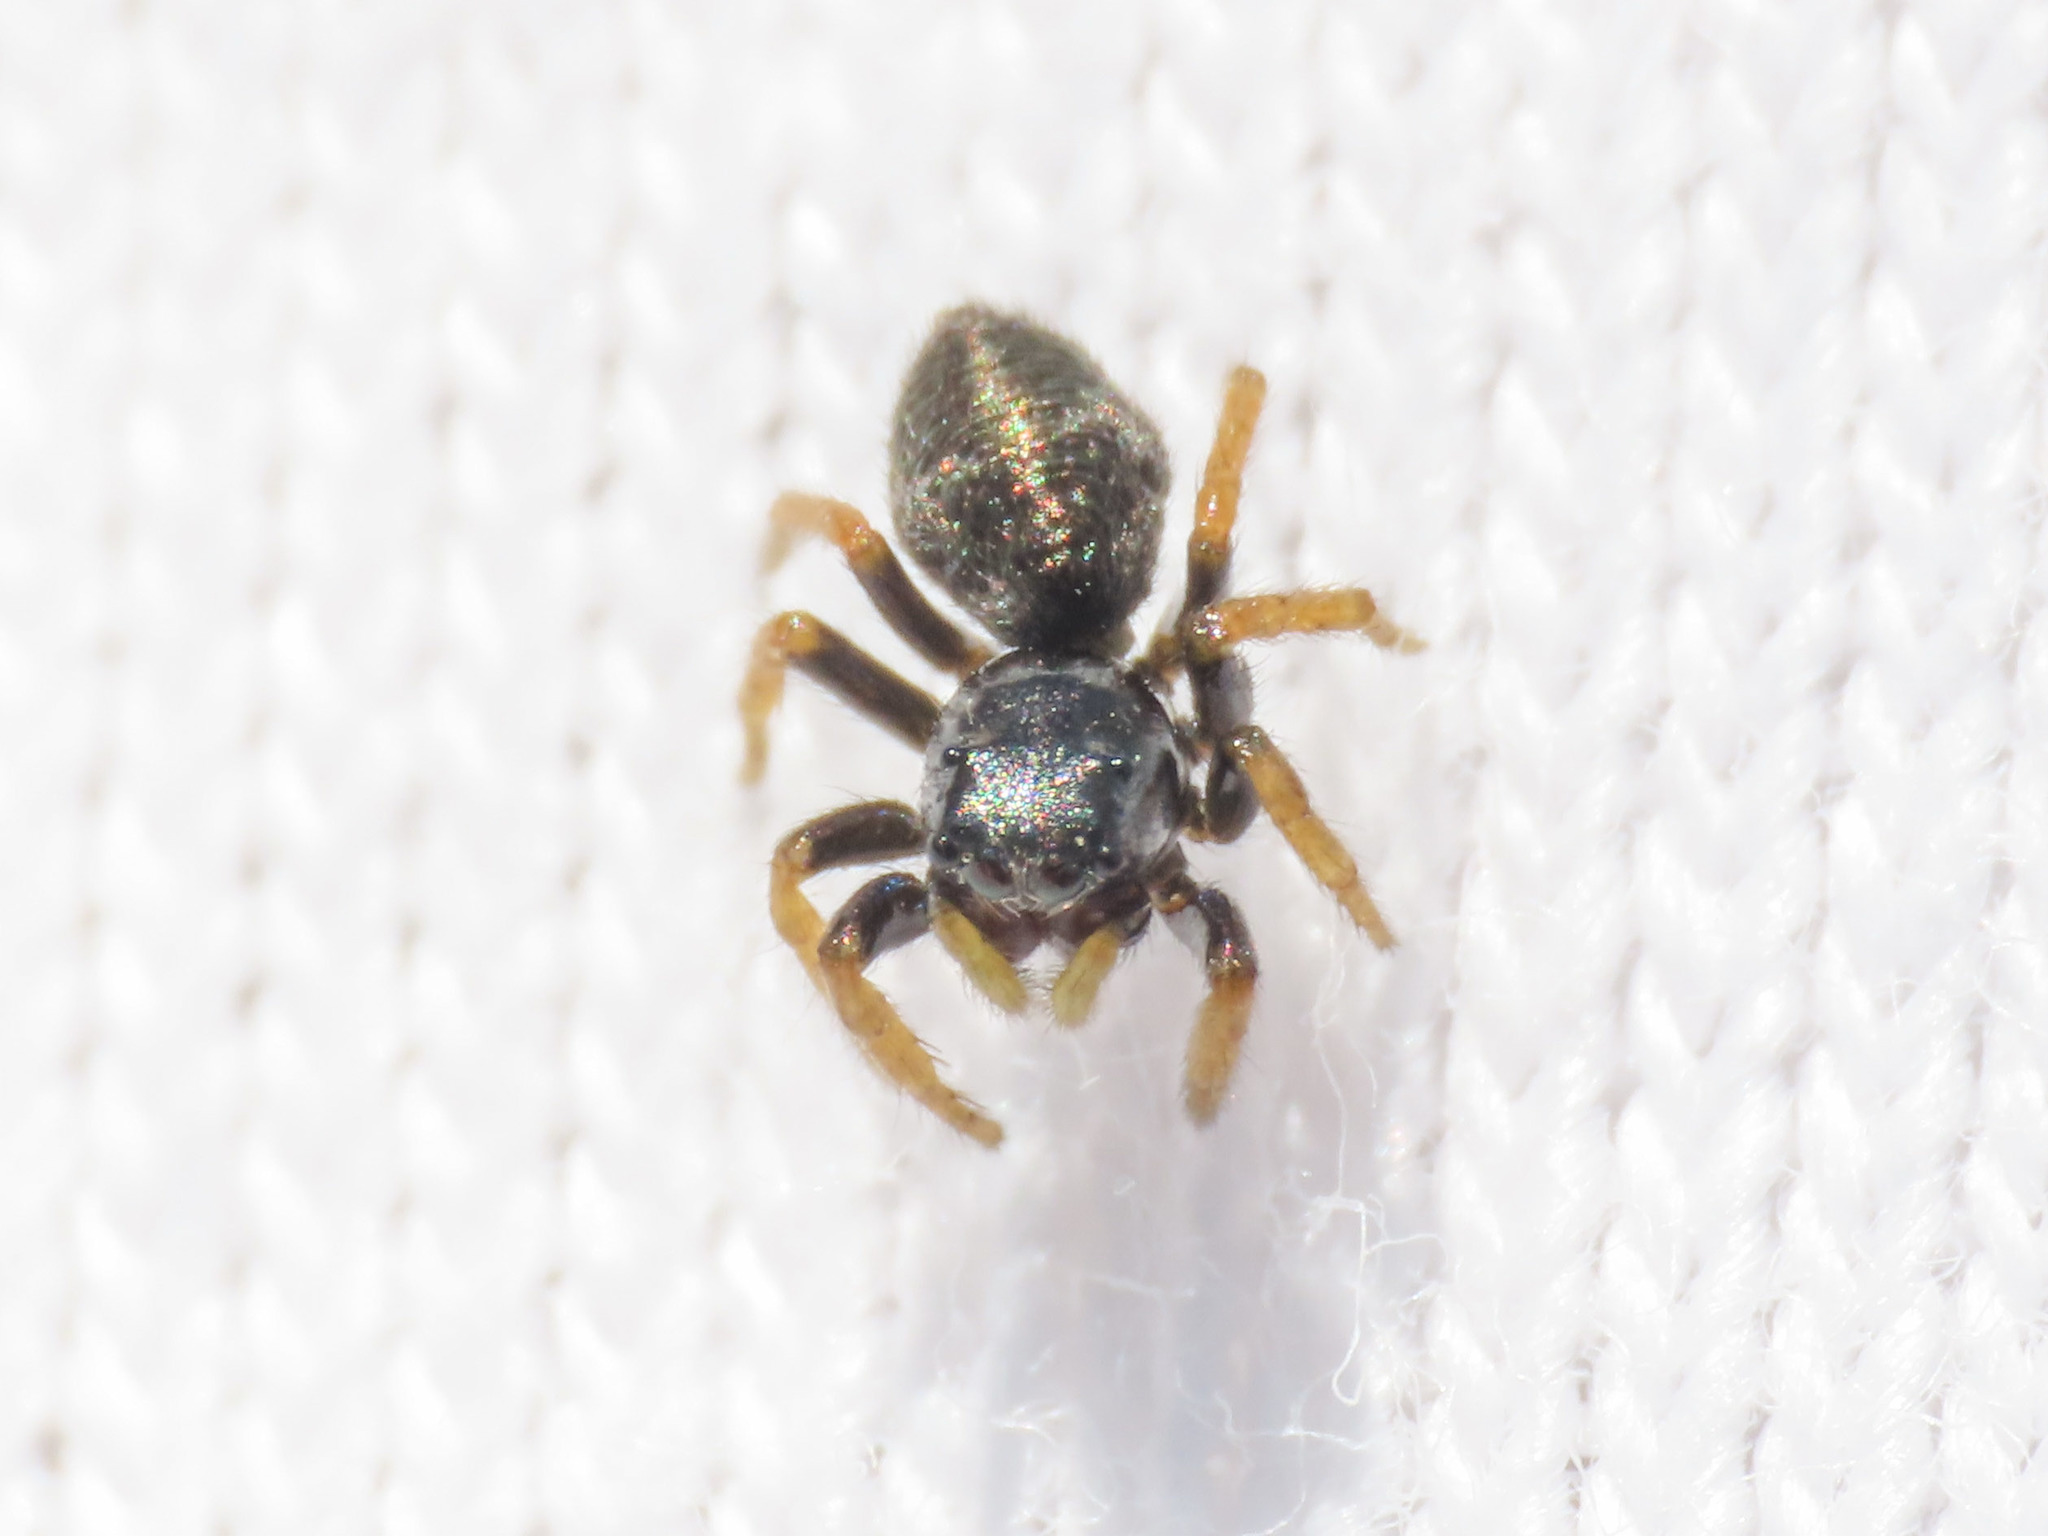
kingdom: Animalia
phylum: Arthropoda
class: Arachnida
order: Araneae
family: Salticidae
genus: Chalcoscirtus
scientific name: Chalcoscirtus infimus
